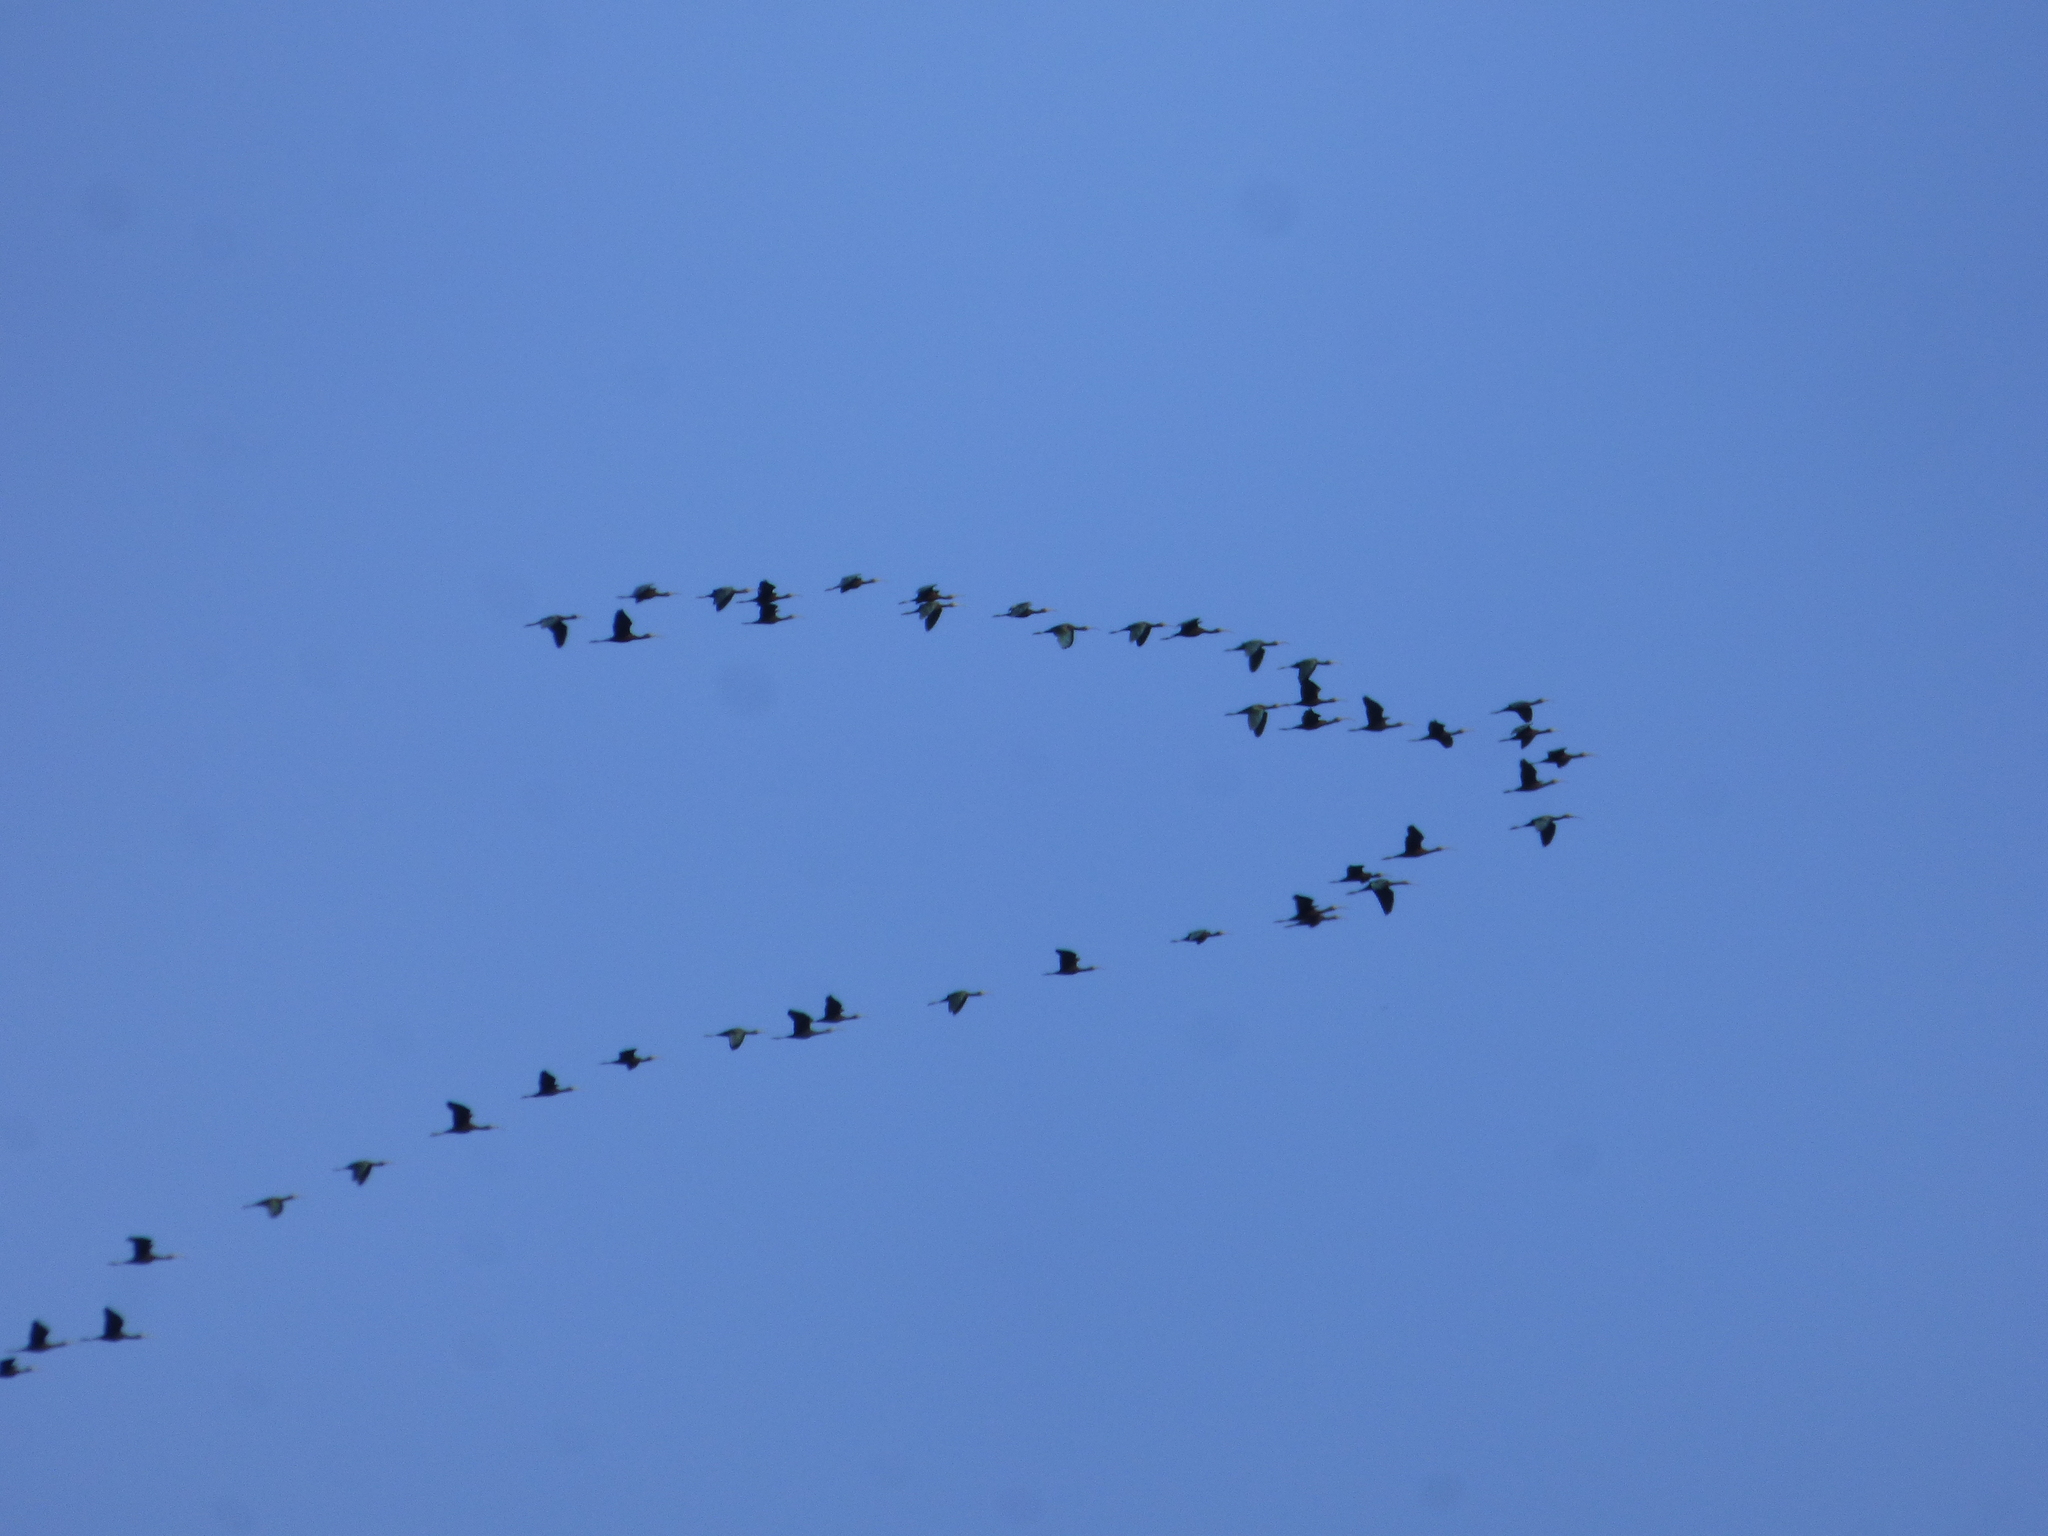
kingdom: Animalia
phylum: Chordata
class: Aves
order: Pelecaniformes
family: Threskiornithidae
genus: Plegadis
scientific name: Plegadis chihi
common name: White-faced ibis
